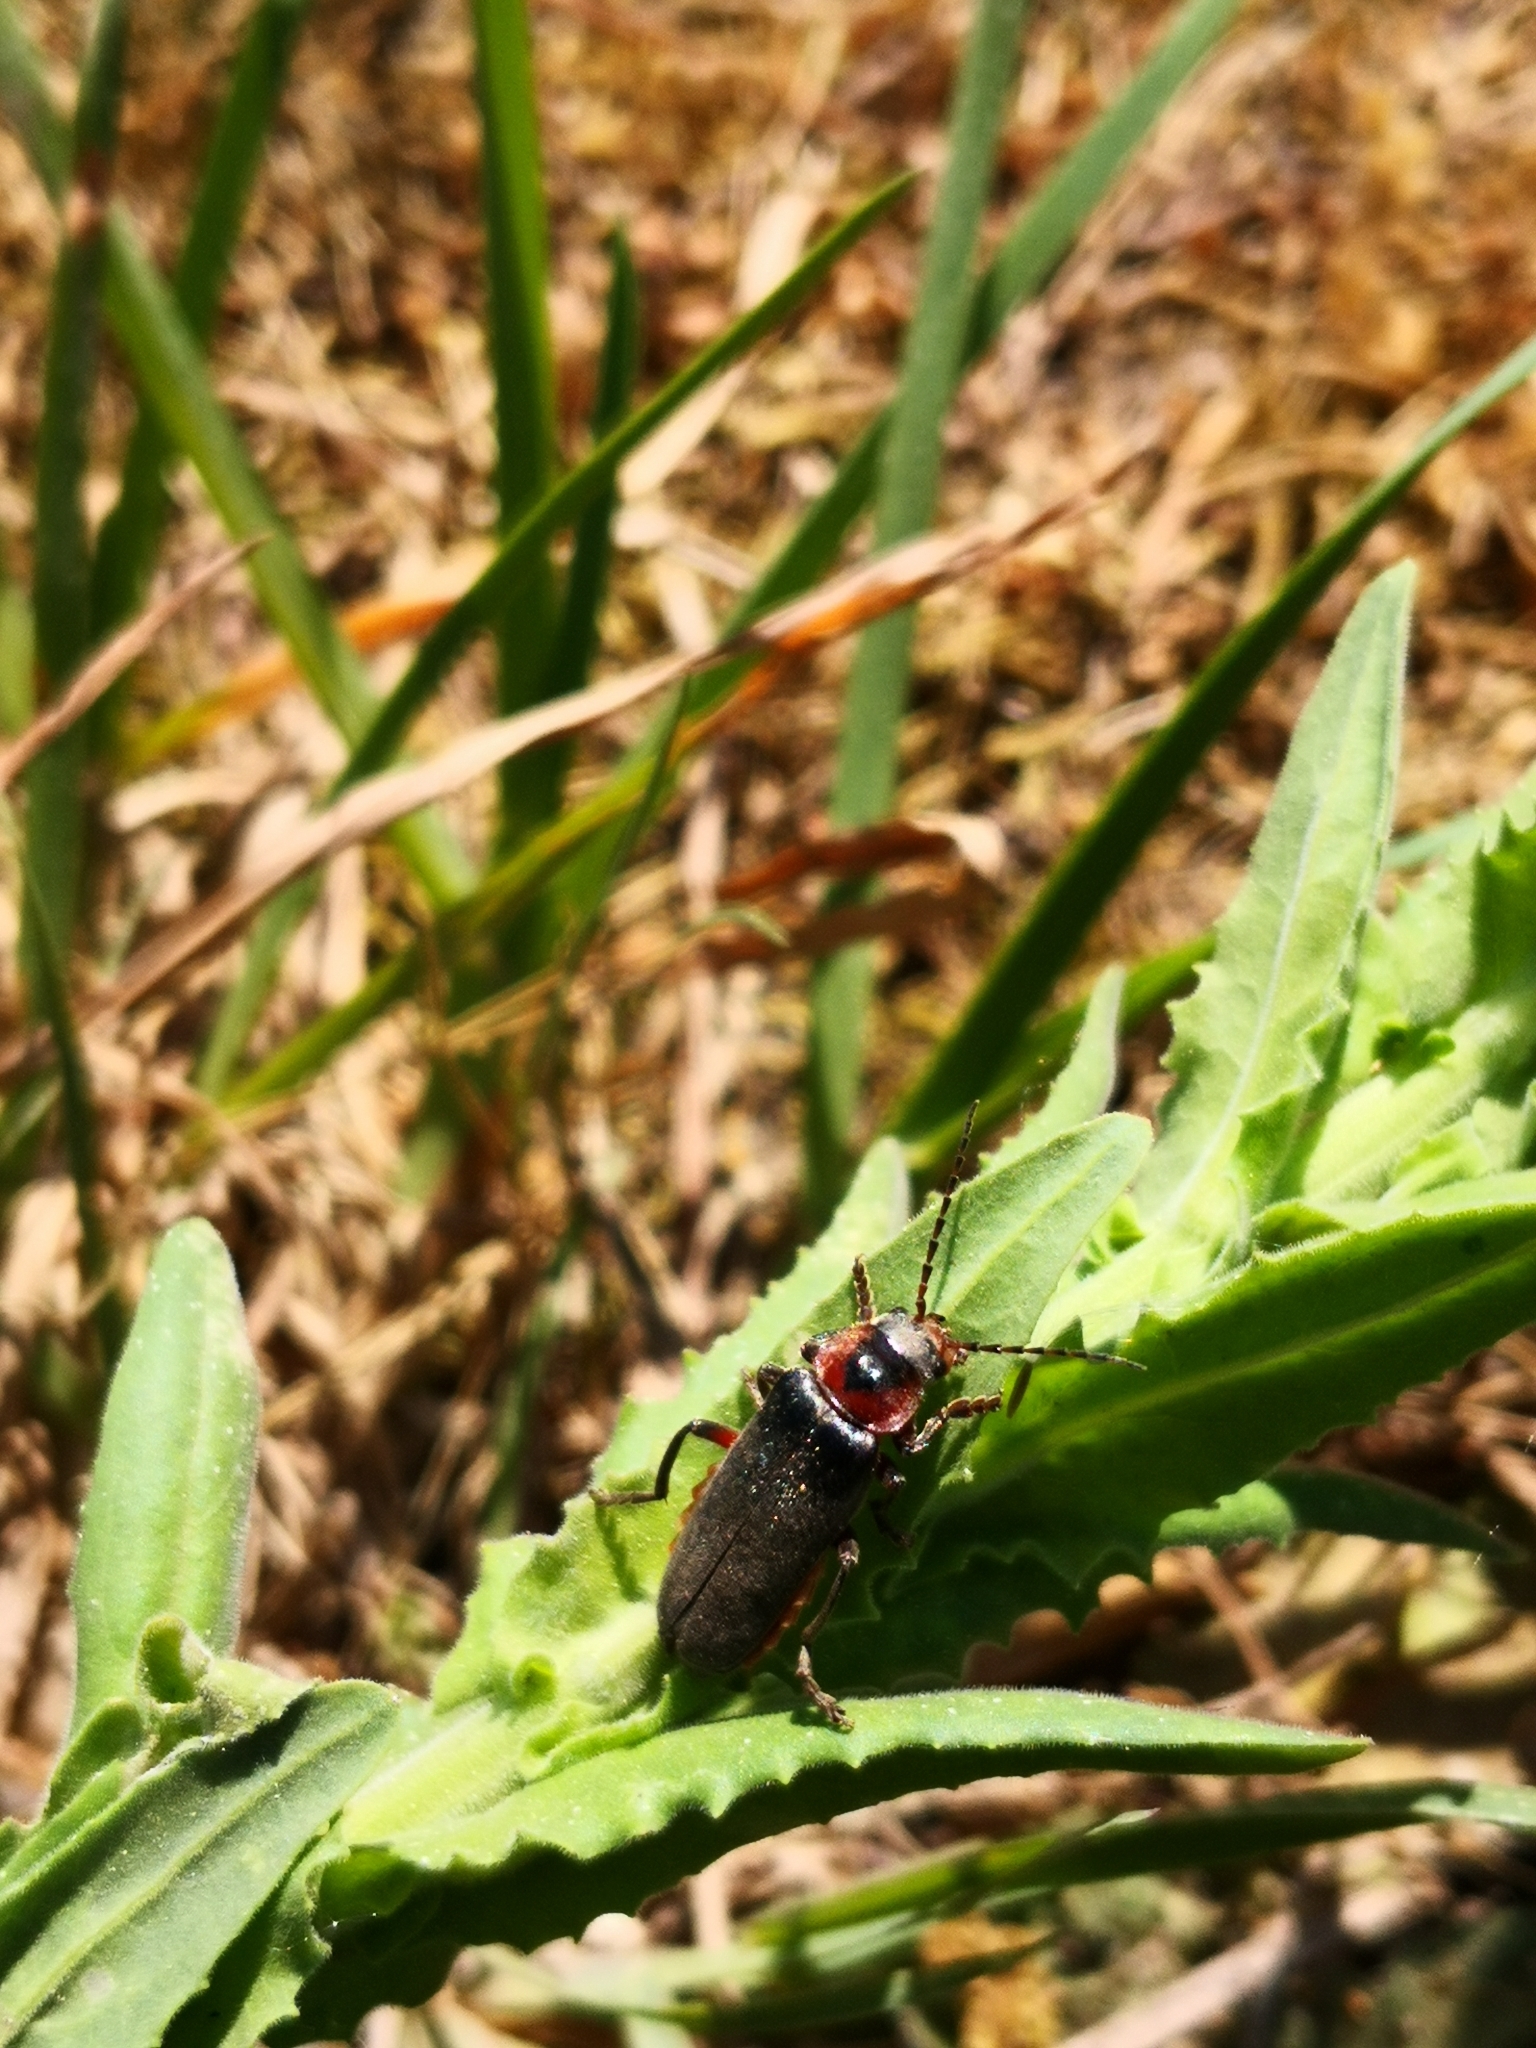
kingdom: Animalia
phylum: Arthropoda
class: Insecta
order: Coleoptera
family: Cantharidae
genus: Cantharis
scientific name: Cantharis rustica
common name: Soldier beetle
